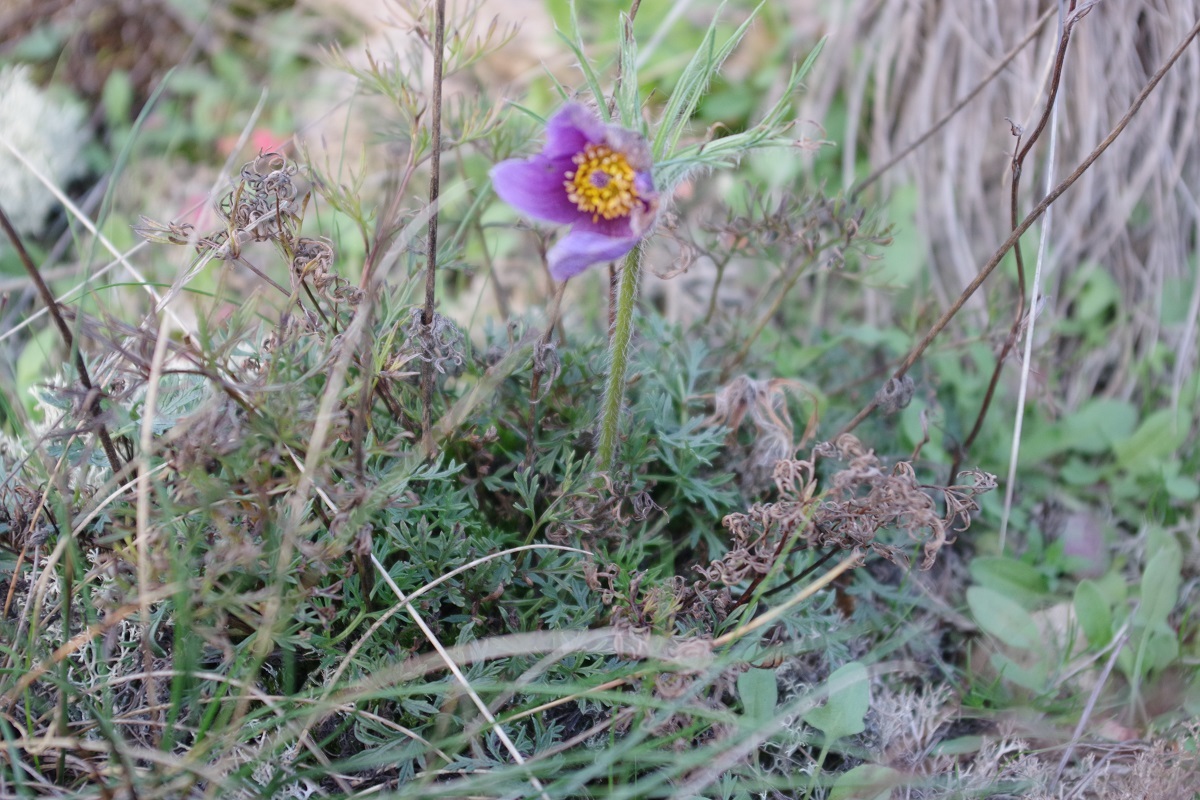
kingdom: Plantae
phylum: Tracheophyta
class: Magnoliopsida
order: Ranunculales
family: Ranunculaceae
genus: Pulsatilla
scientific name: Pulsatilla vulgaris
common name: Pasqueflower
